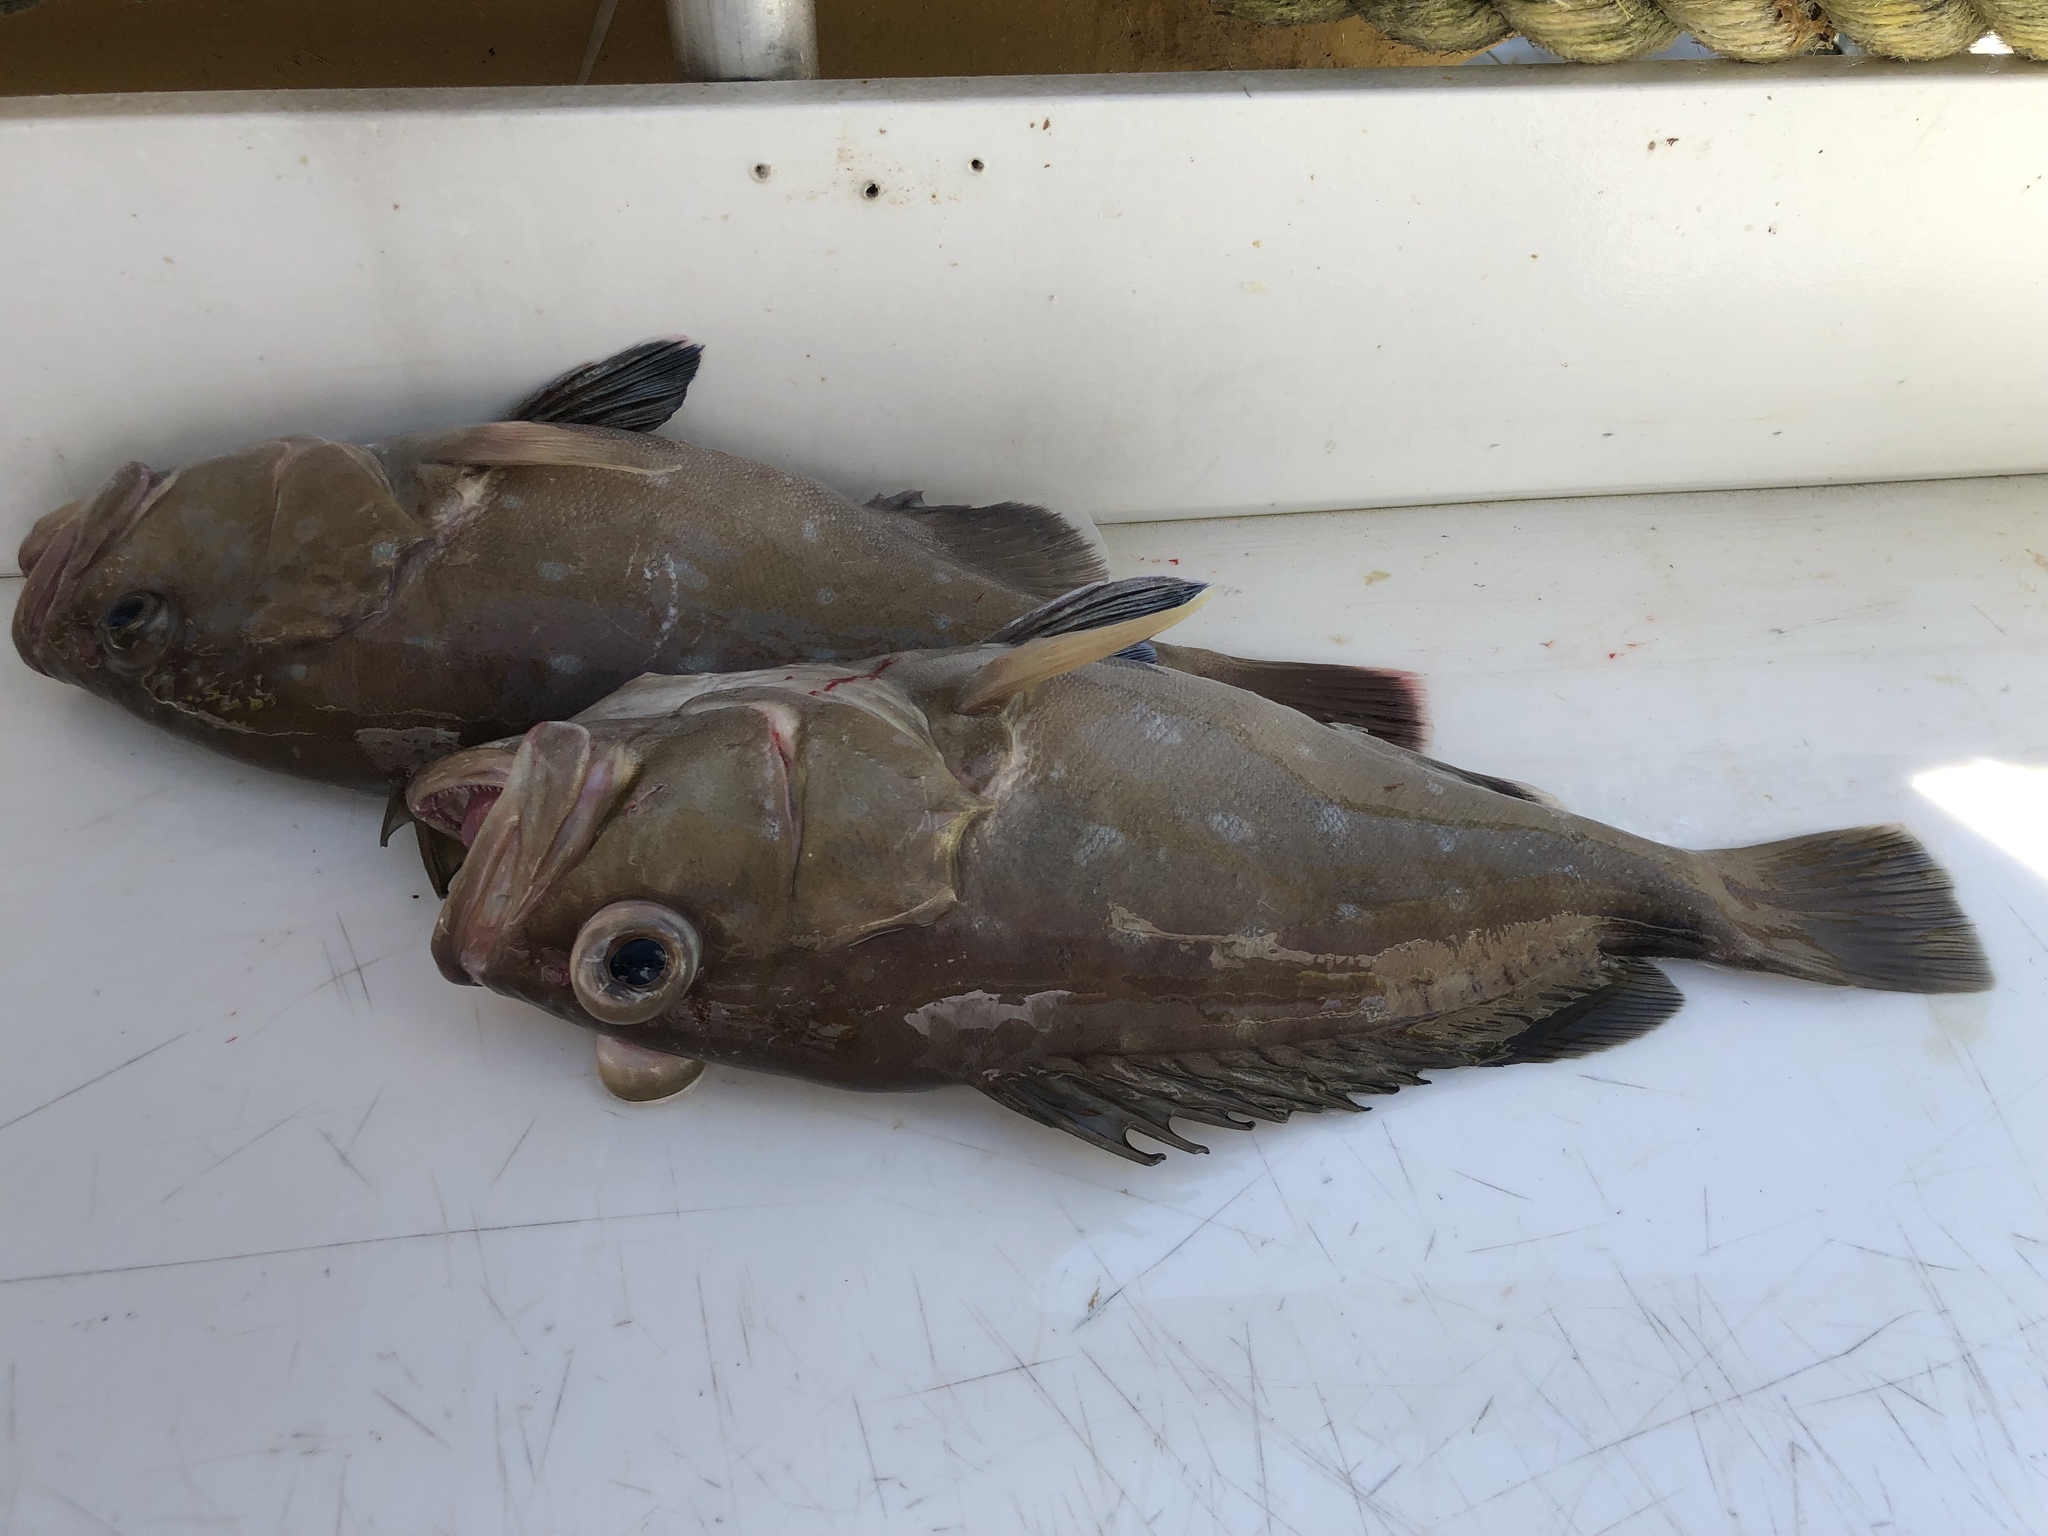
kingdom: Animalia
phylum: Chordata
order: Perciformes
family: Serranidae
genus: Hyporthodus
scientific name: Hyporthodus niveatus
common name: Seabass
